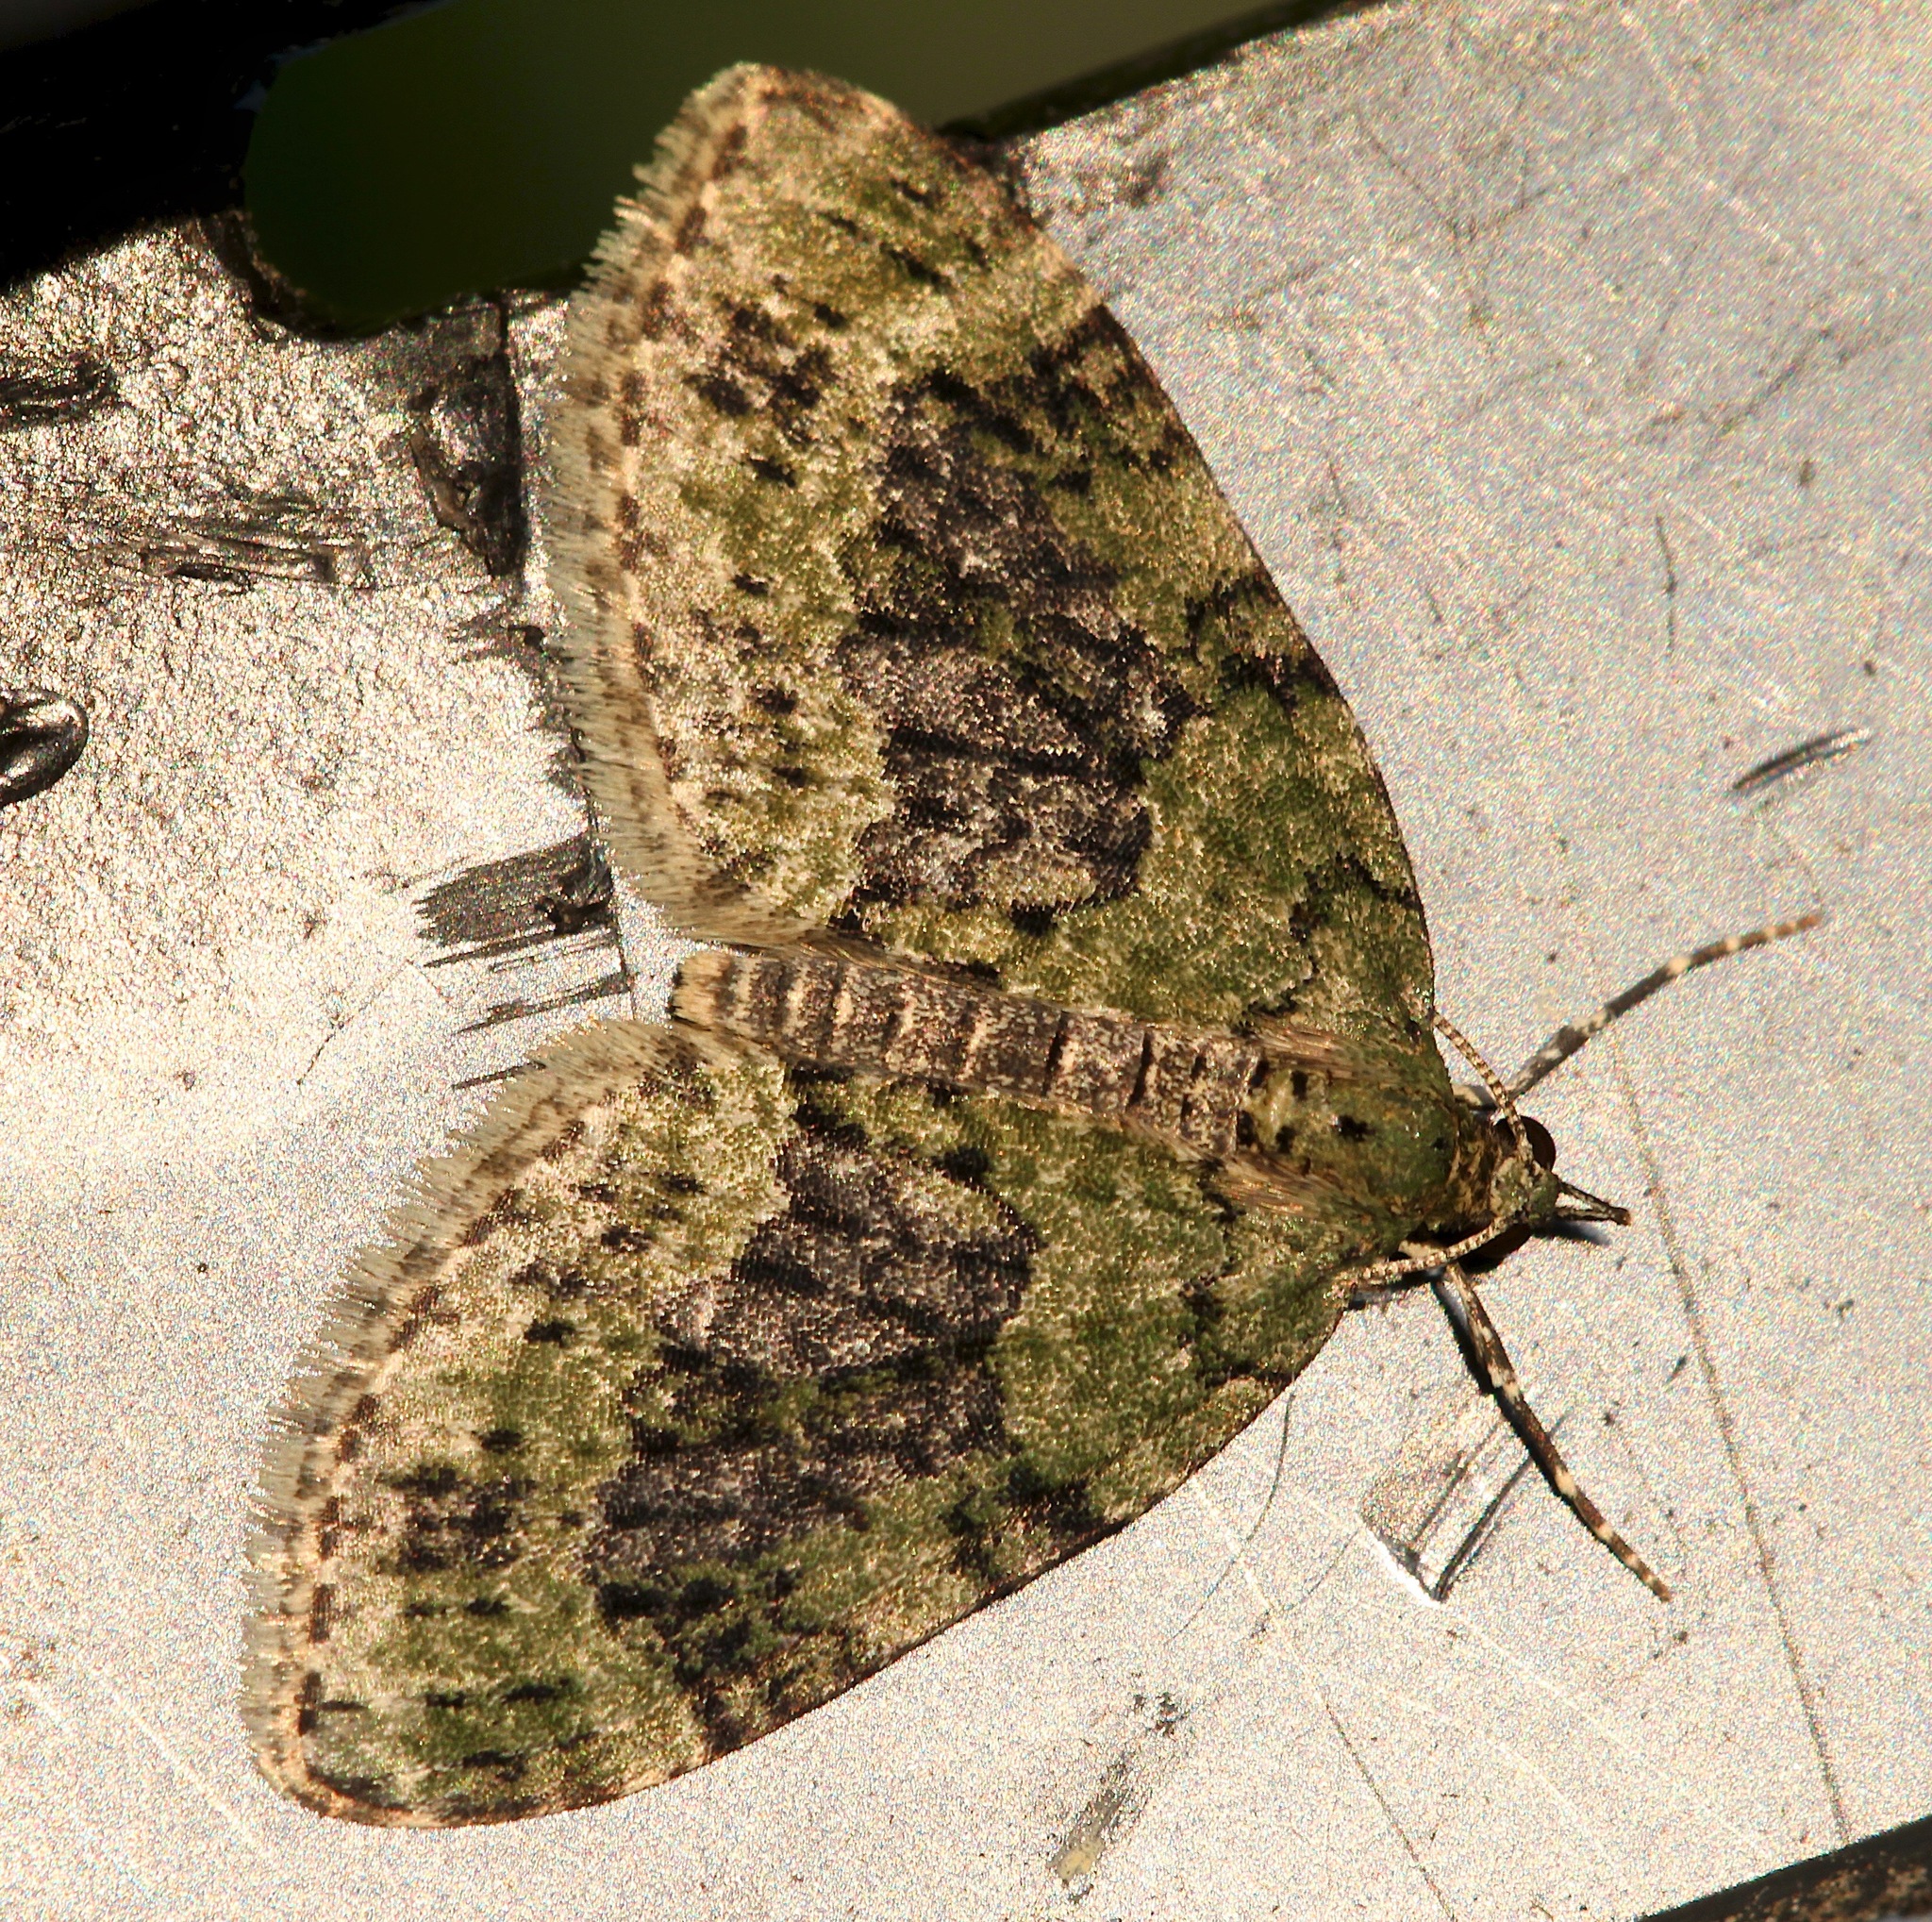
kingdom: Animalia
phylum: Arthropoda
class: Insecta
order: Lepidoptera
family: Geometridae
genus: Acasis
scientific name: Acasis viretata
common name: Yellow-barred brindle
